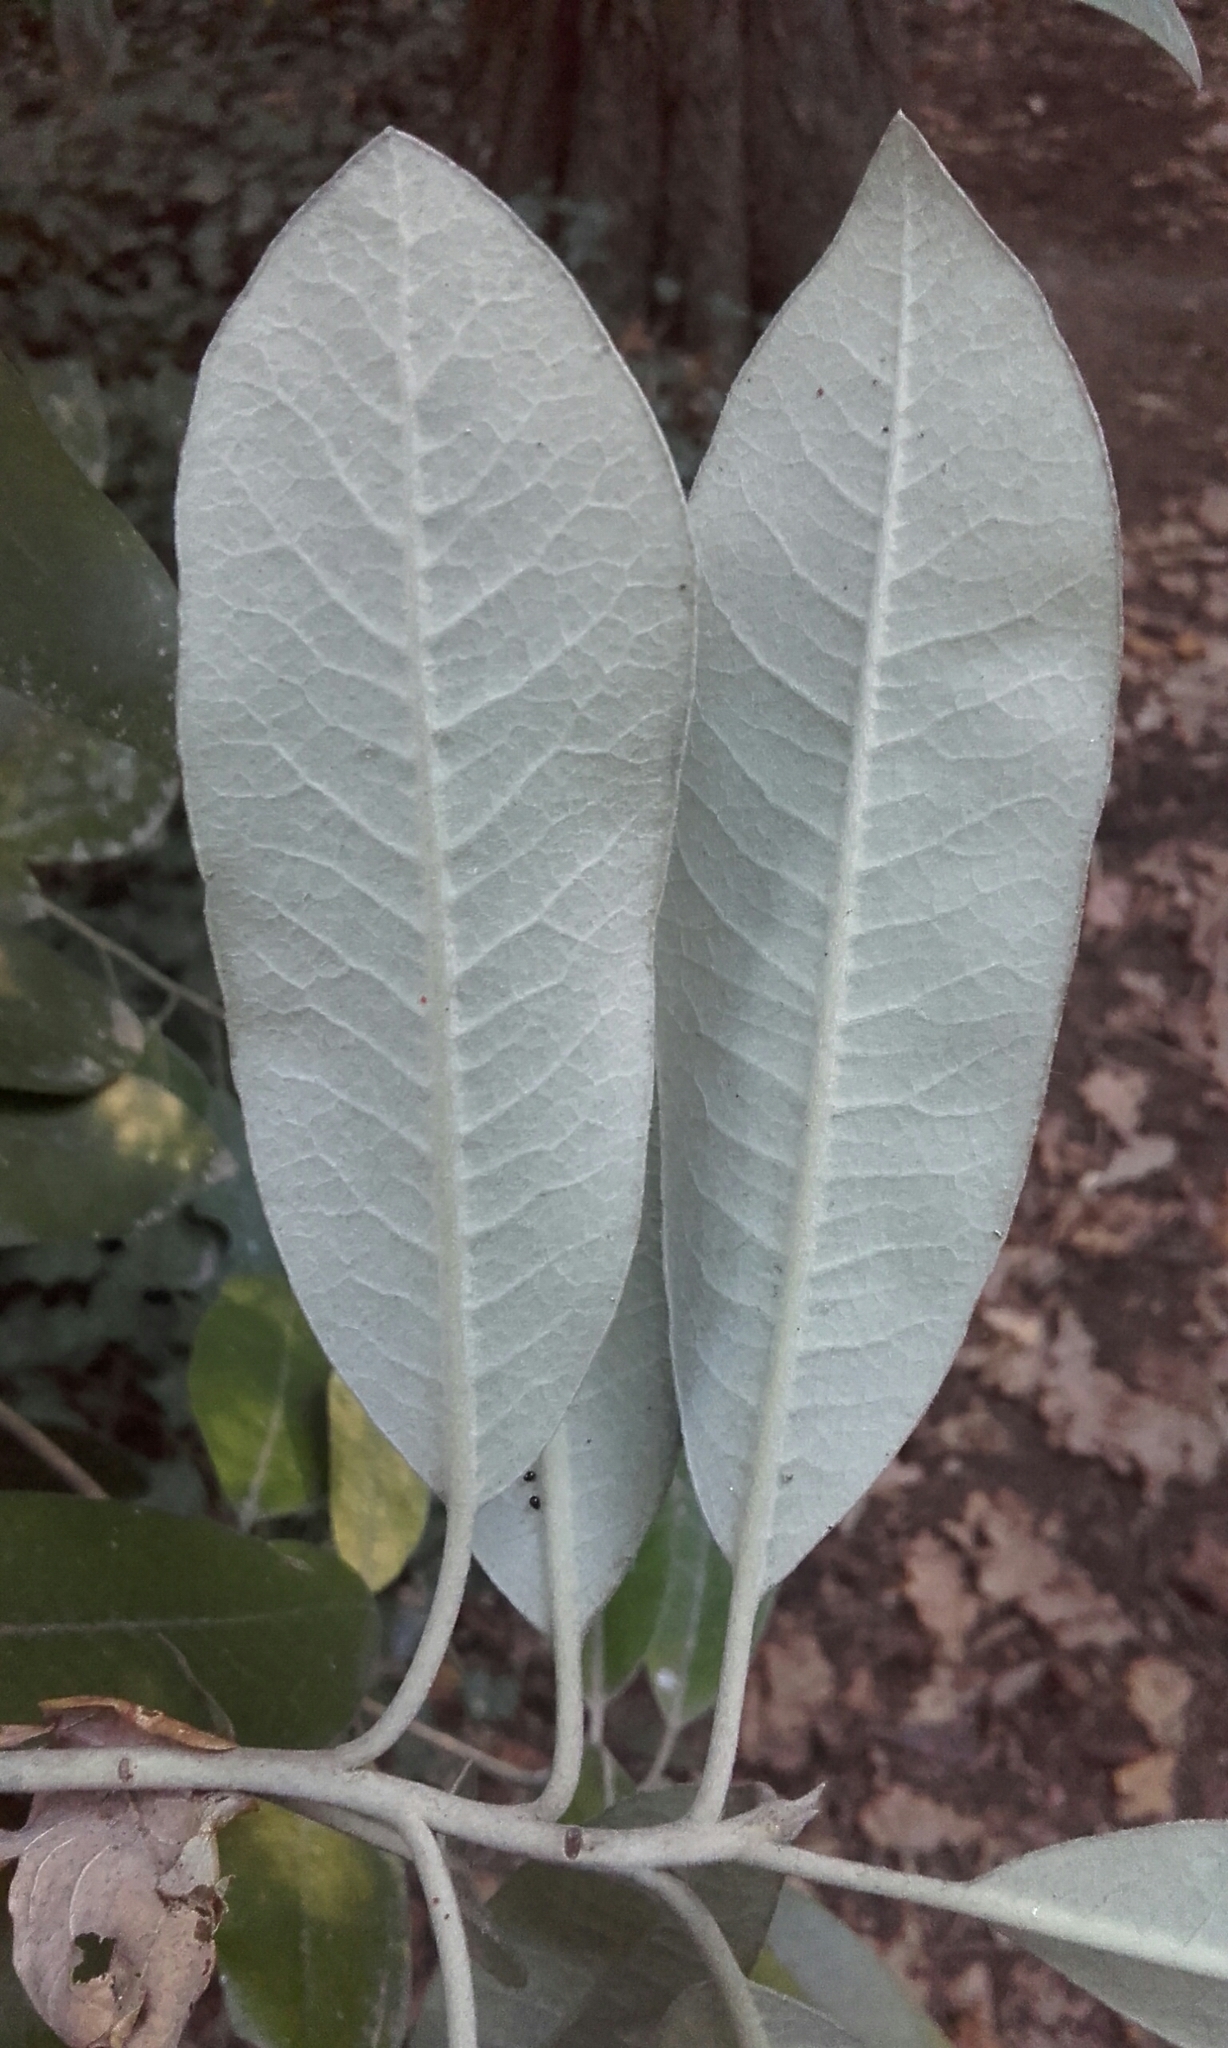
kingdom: Plantae
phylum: Tracheophyta
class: Magnoliopsida
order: Apiales
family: Pittosporaceae
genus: Pittosporum
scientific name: Pittosporum ralphii
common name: Ralph's desertwillow
